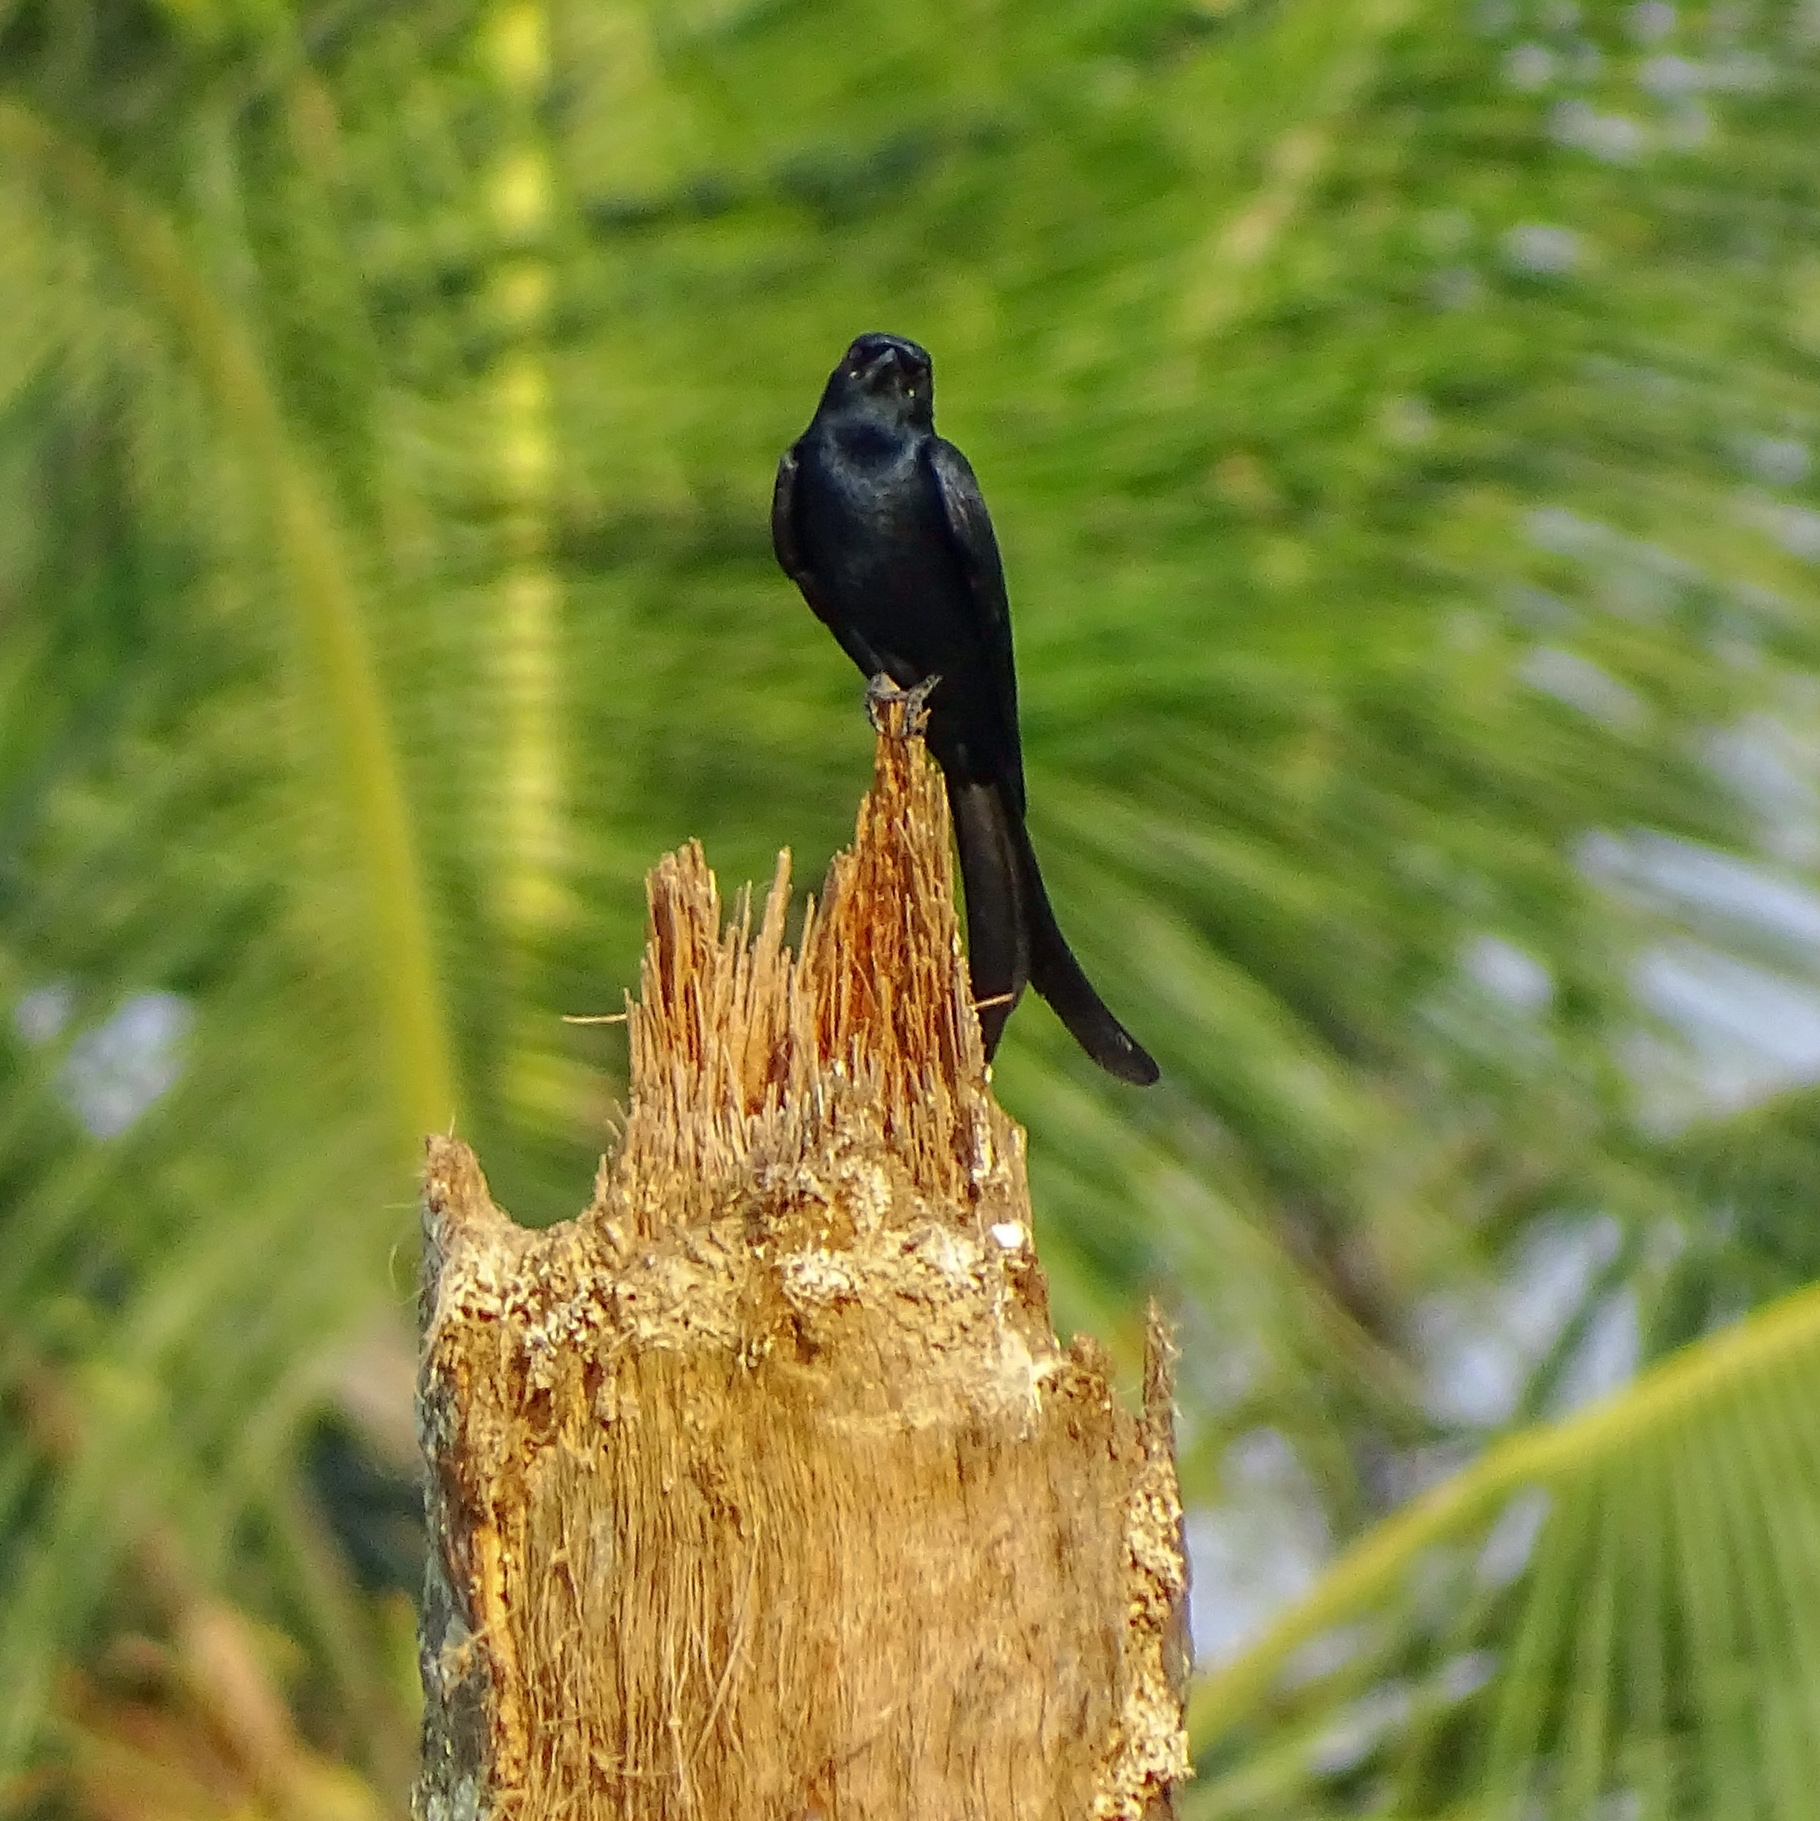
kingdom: Animalia
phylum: Chordata
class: Aves
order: Passeriformes
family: Dicruridae
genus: Dicrurus
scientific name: Dicrurus macrocercus
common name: Black drongo
